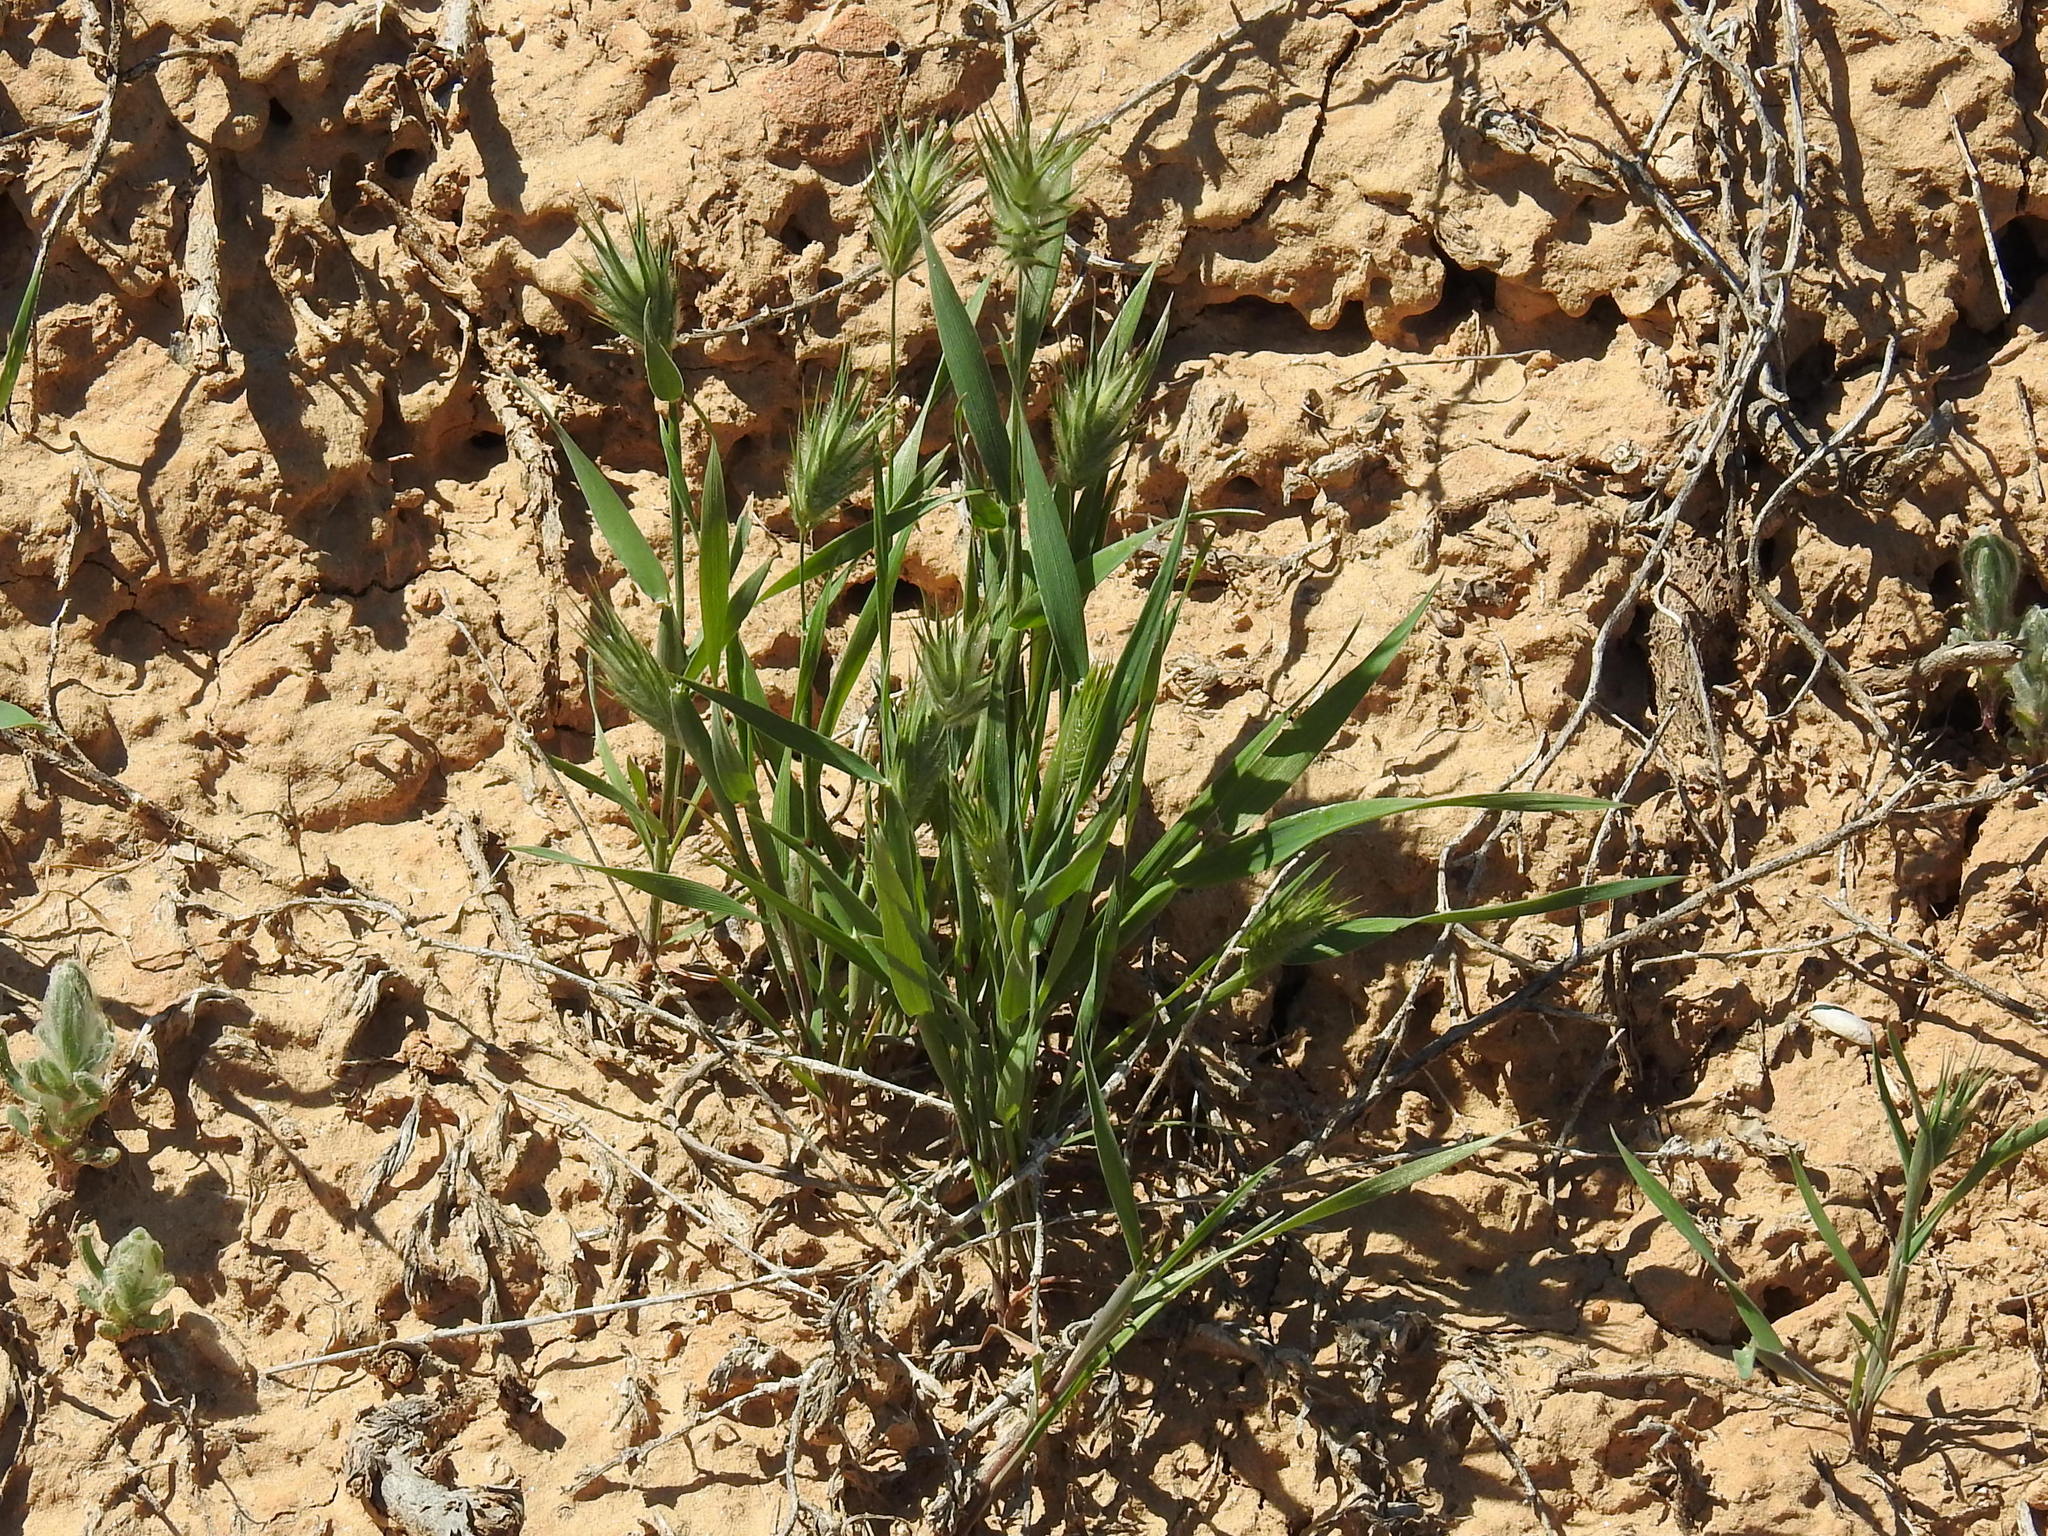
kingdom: Plantae
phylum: Tracheophyta
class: Liliopsida
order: Poales
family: Poaceae
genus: Eremopyrum
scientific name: Eremopyrum orientale
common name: Oriental false wheatgrass
